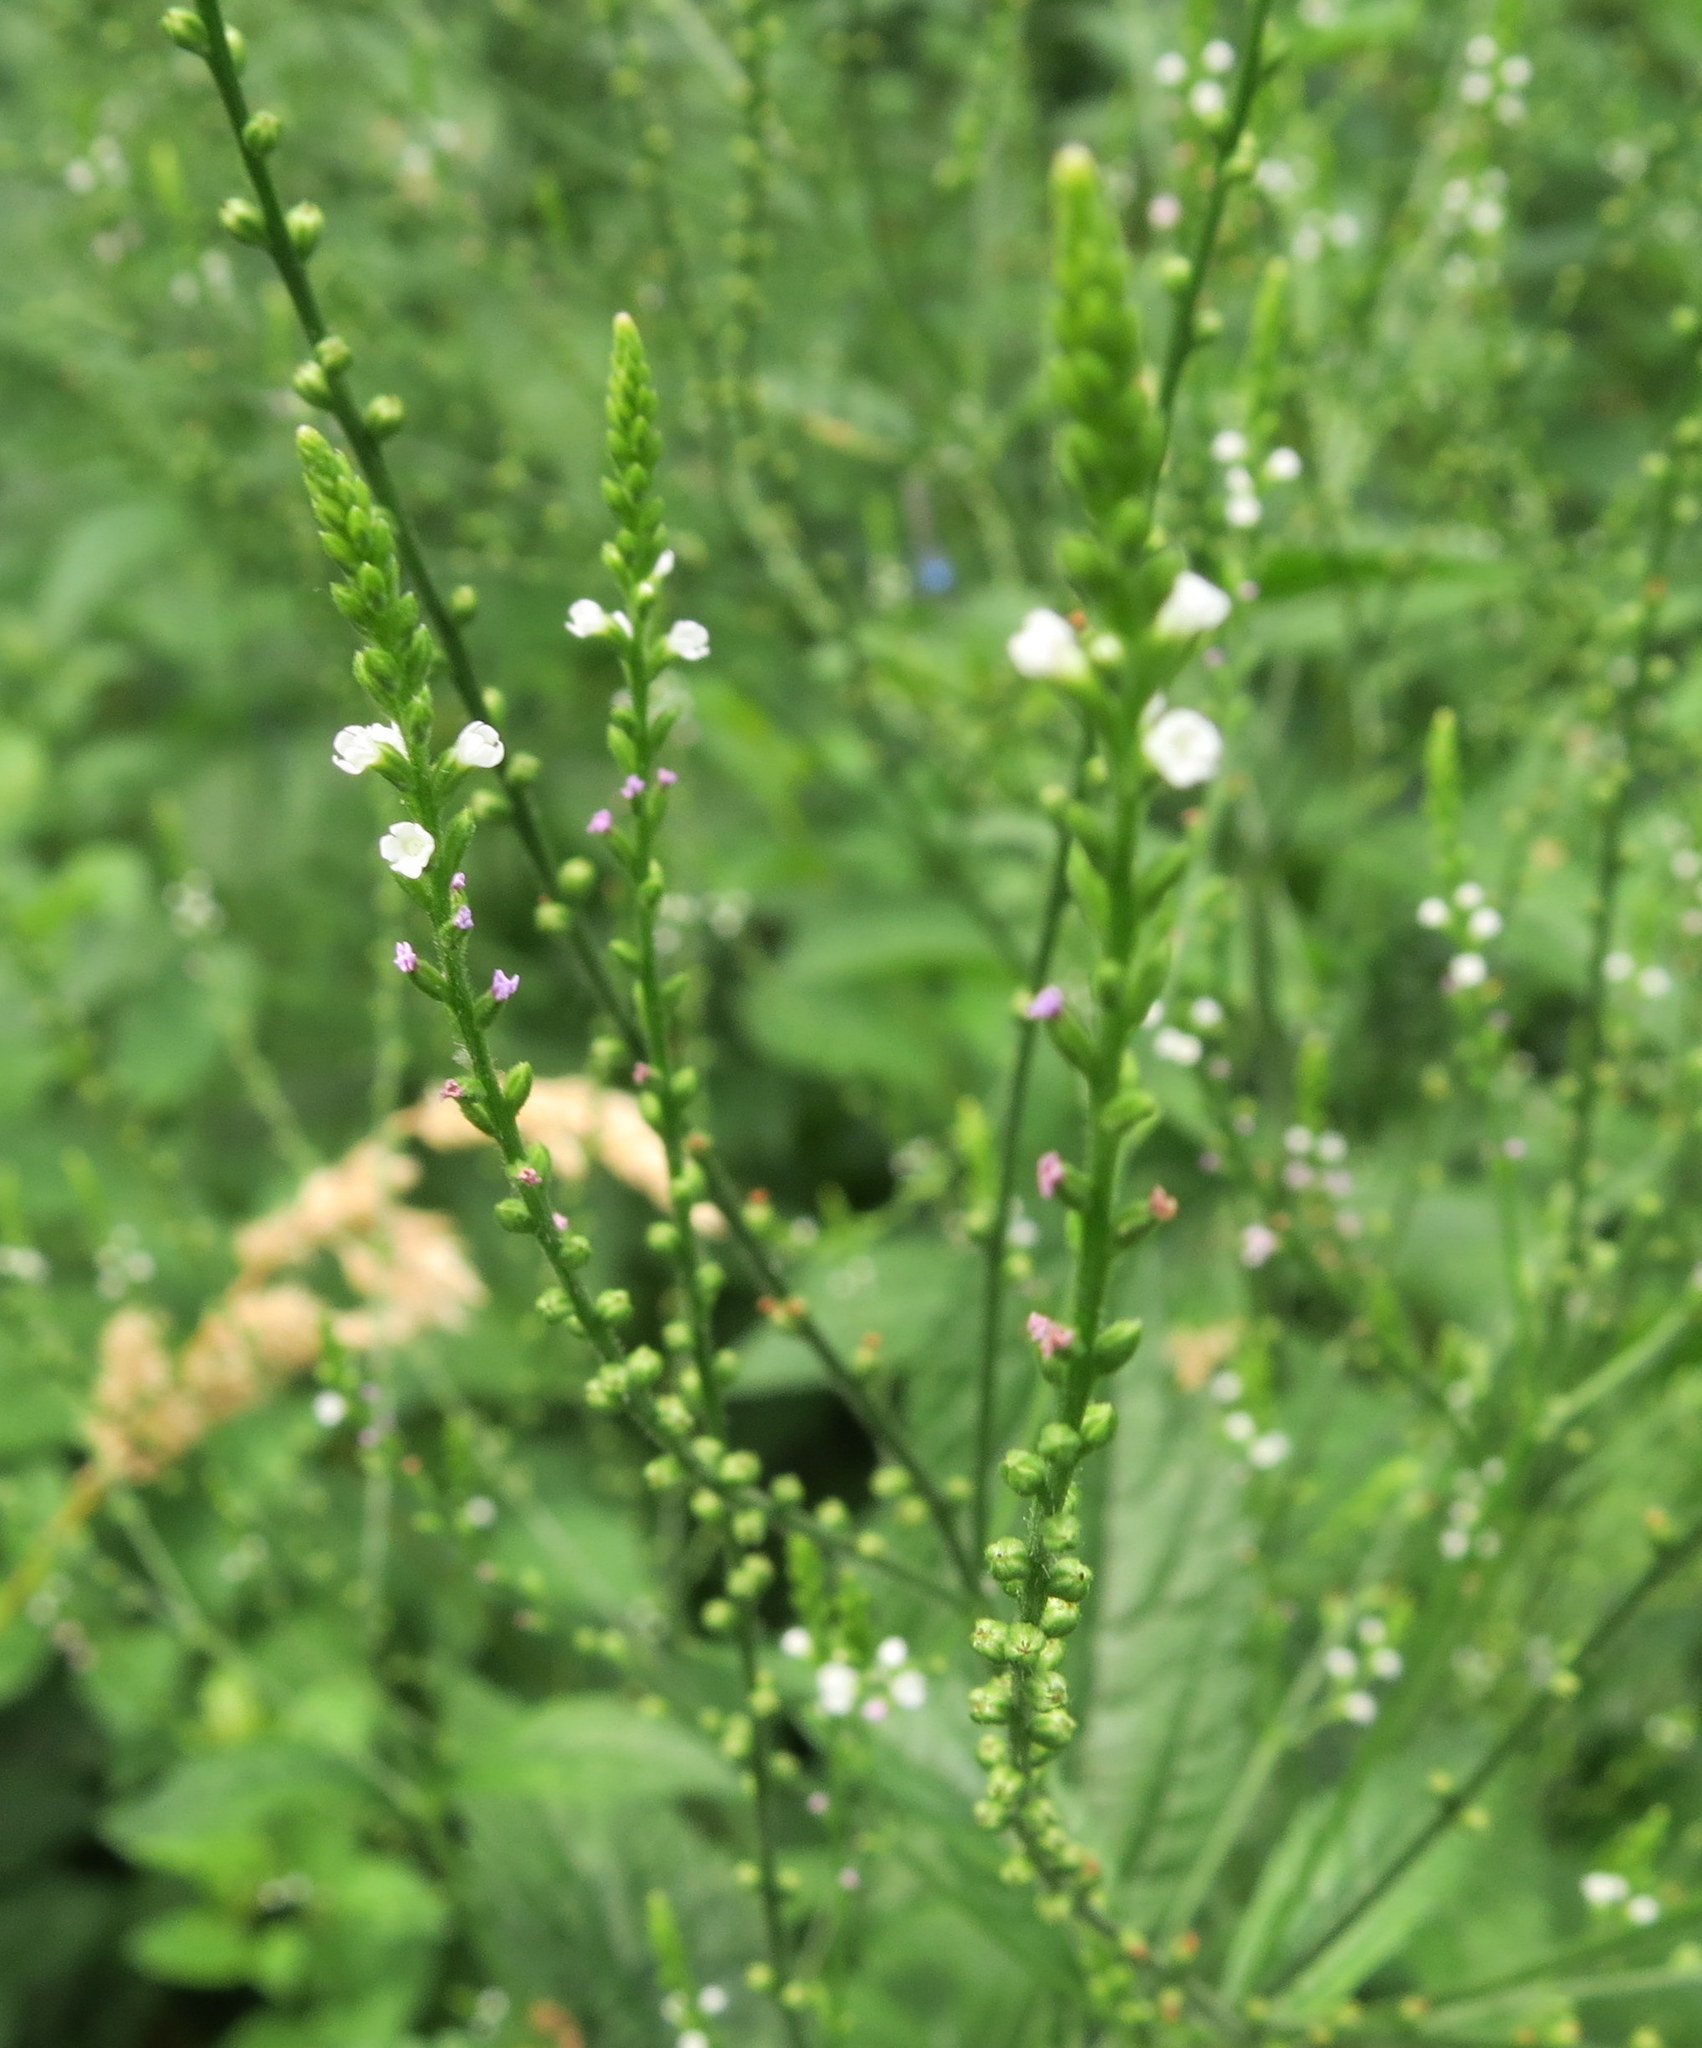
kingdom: Plantae
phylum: Tracheophyta
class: Magnoliopsida
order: Lamiales
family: Verbenaceae
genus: Verbena
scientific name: Verbena urticifolia
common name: Nettle-leaved vervain
